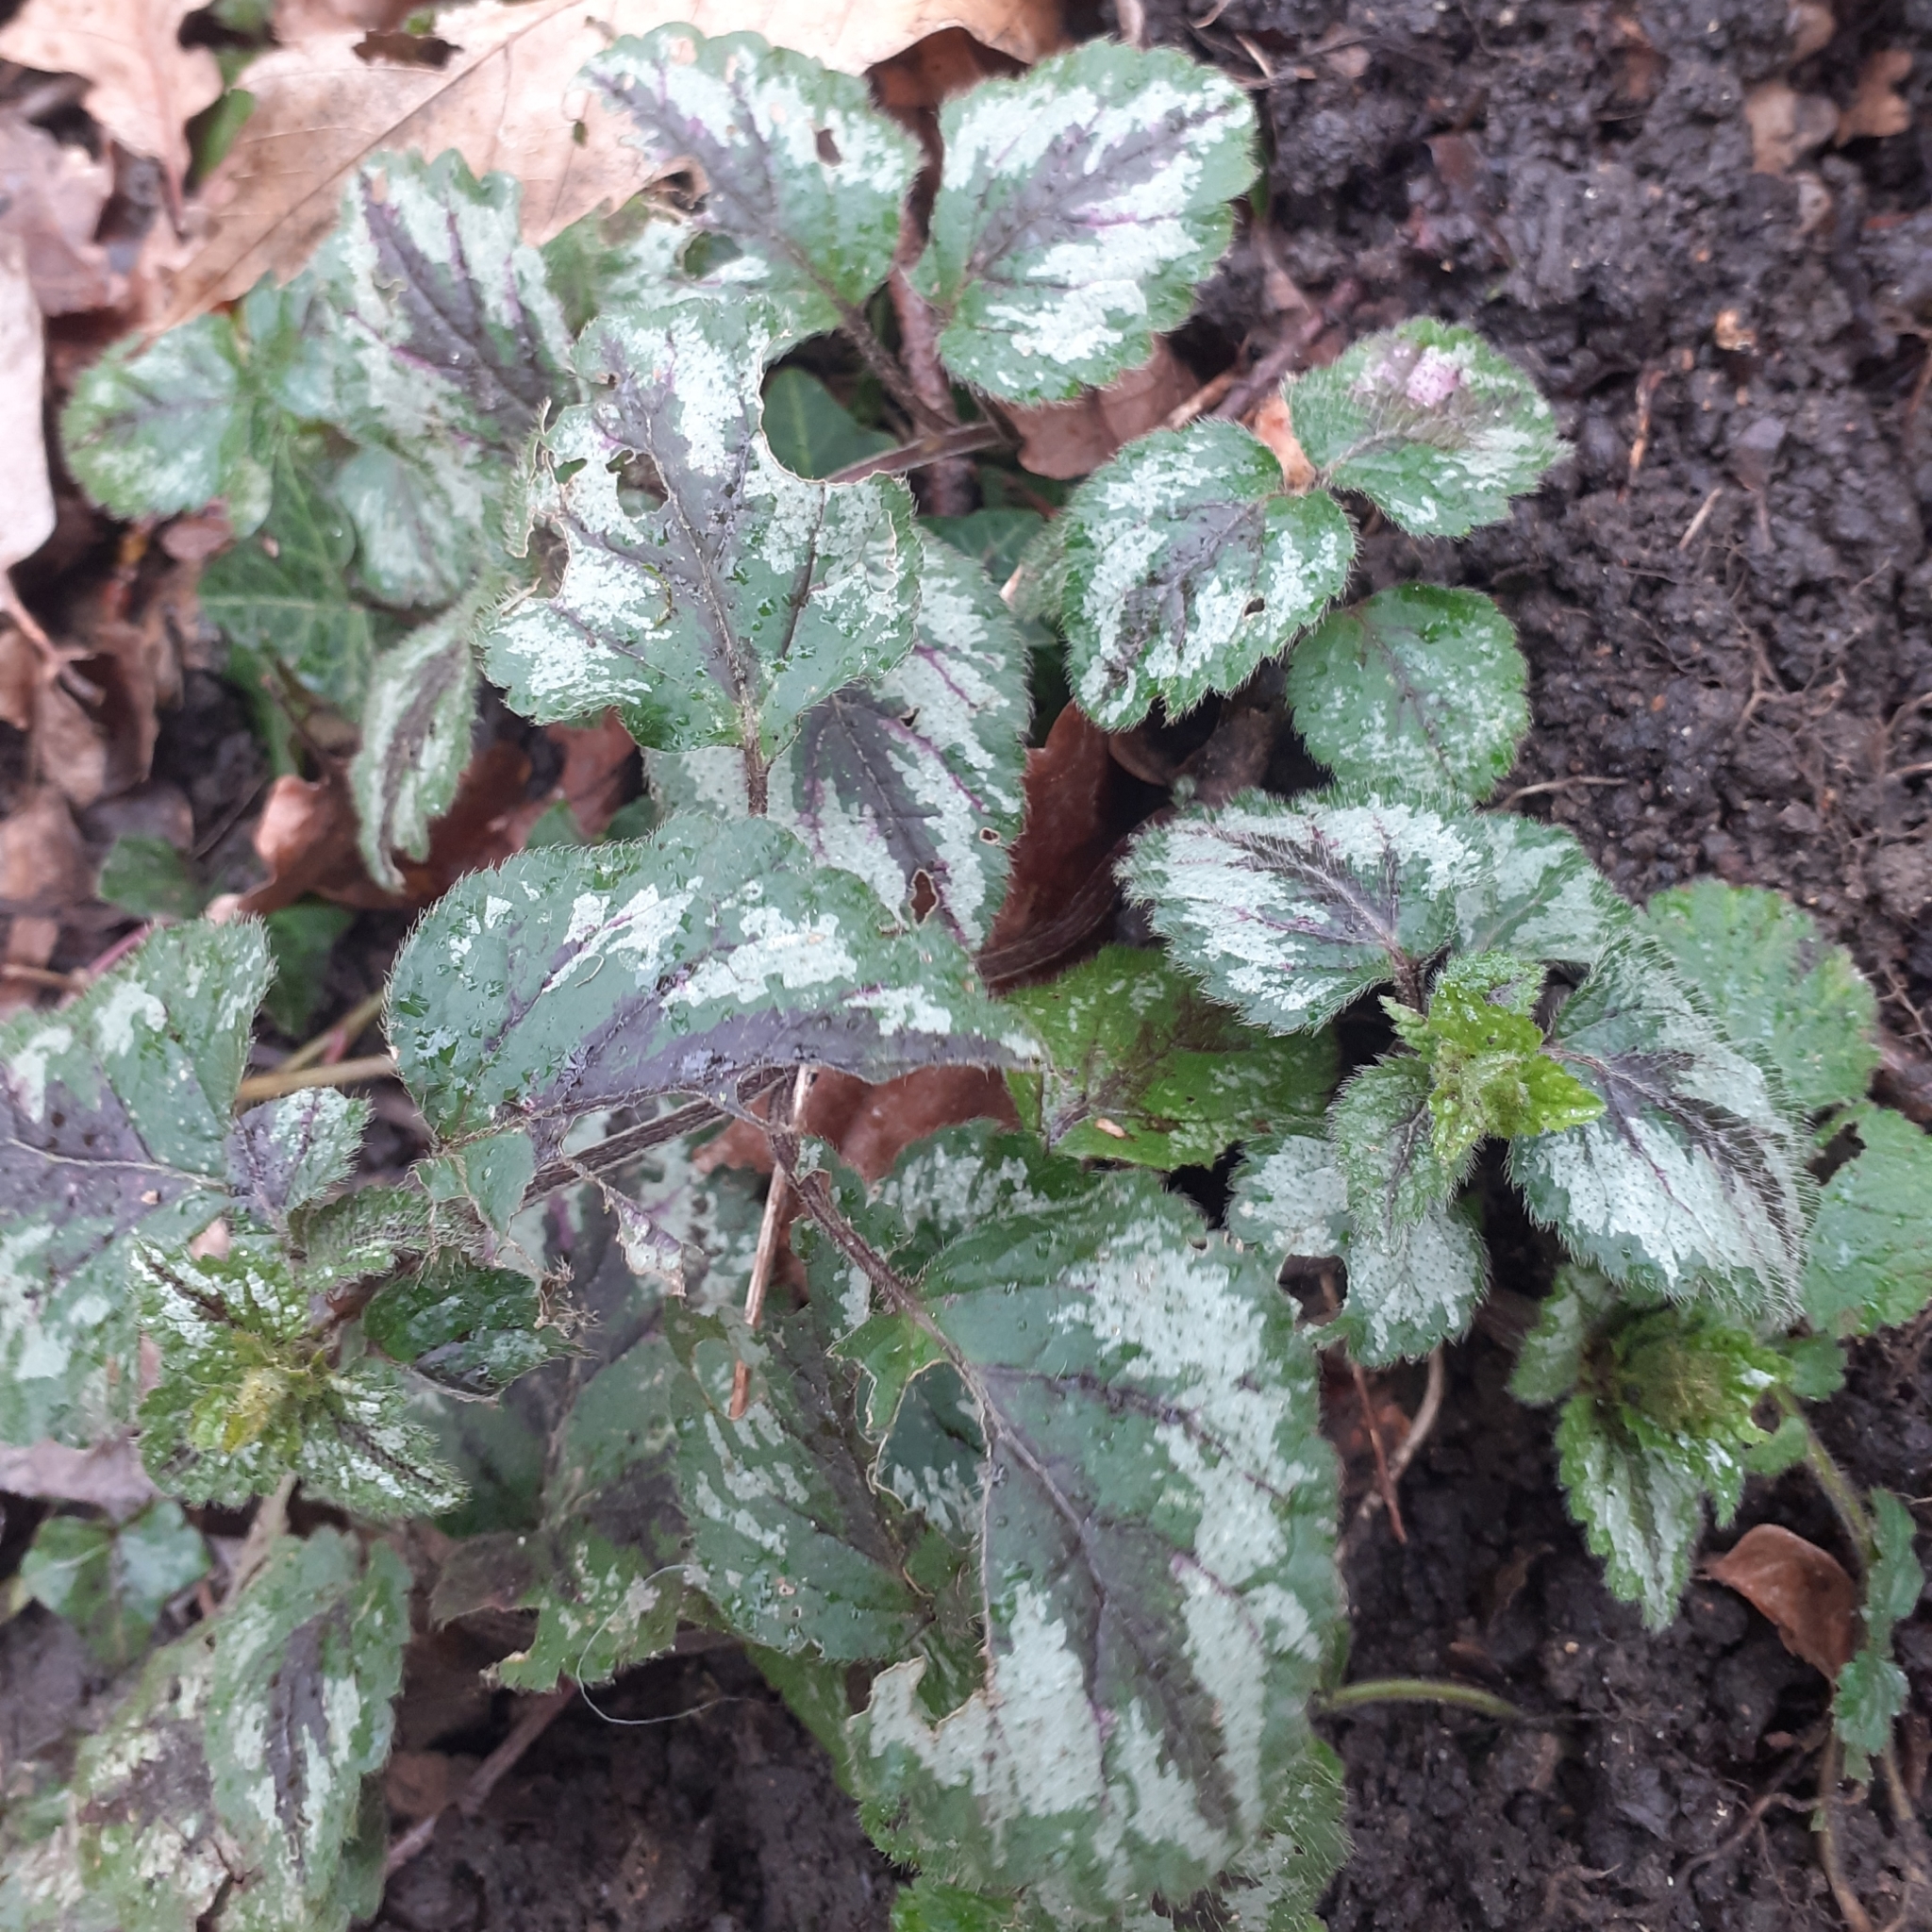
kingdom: Plantae
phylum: Tracheophyta
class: Magnoliopsida
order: Lamiales
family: Lamiaceae
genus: Lamium
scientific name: Lamium galeobdolon
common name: Yellow archangel
